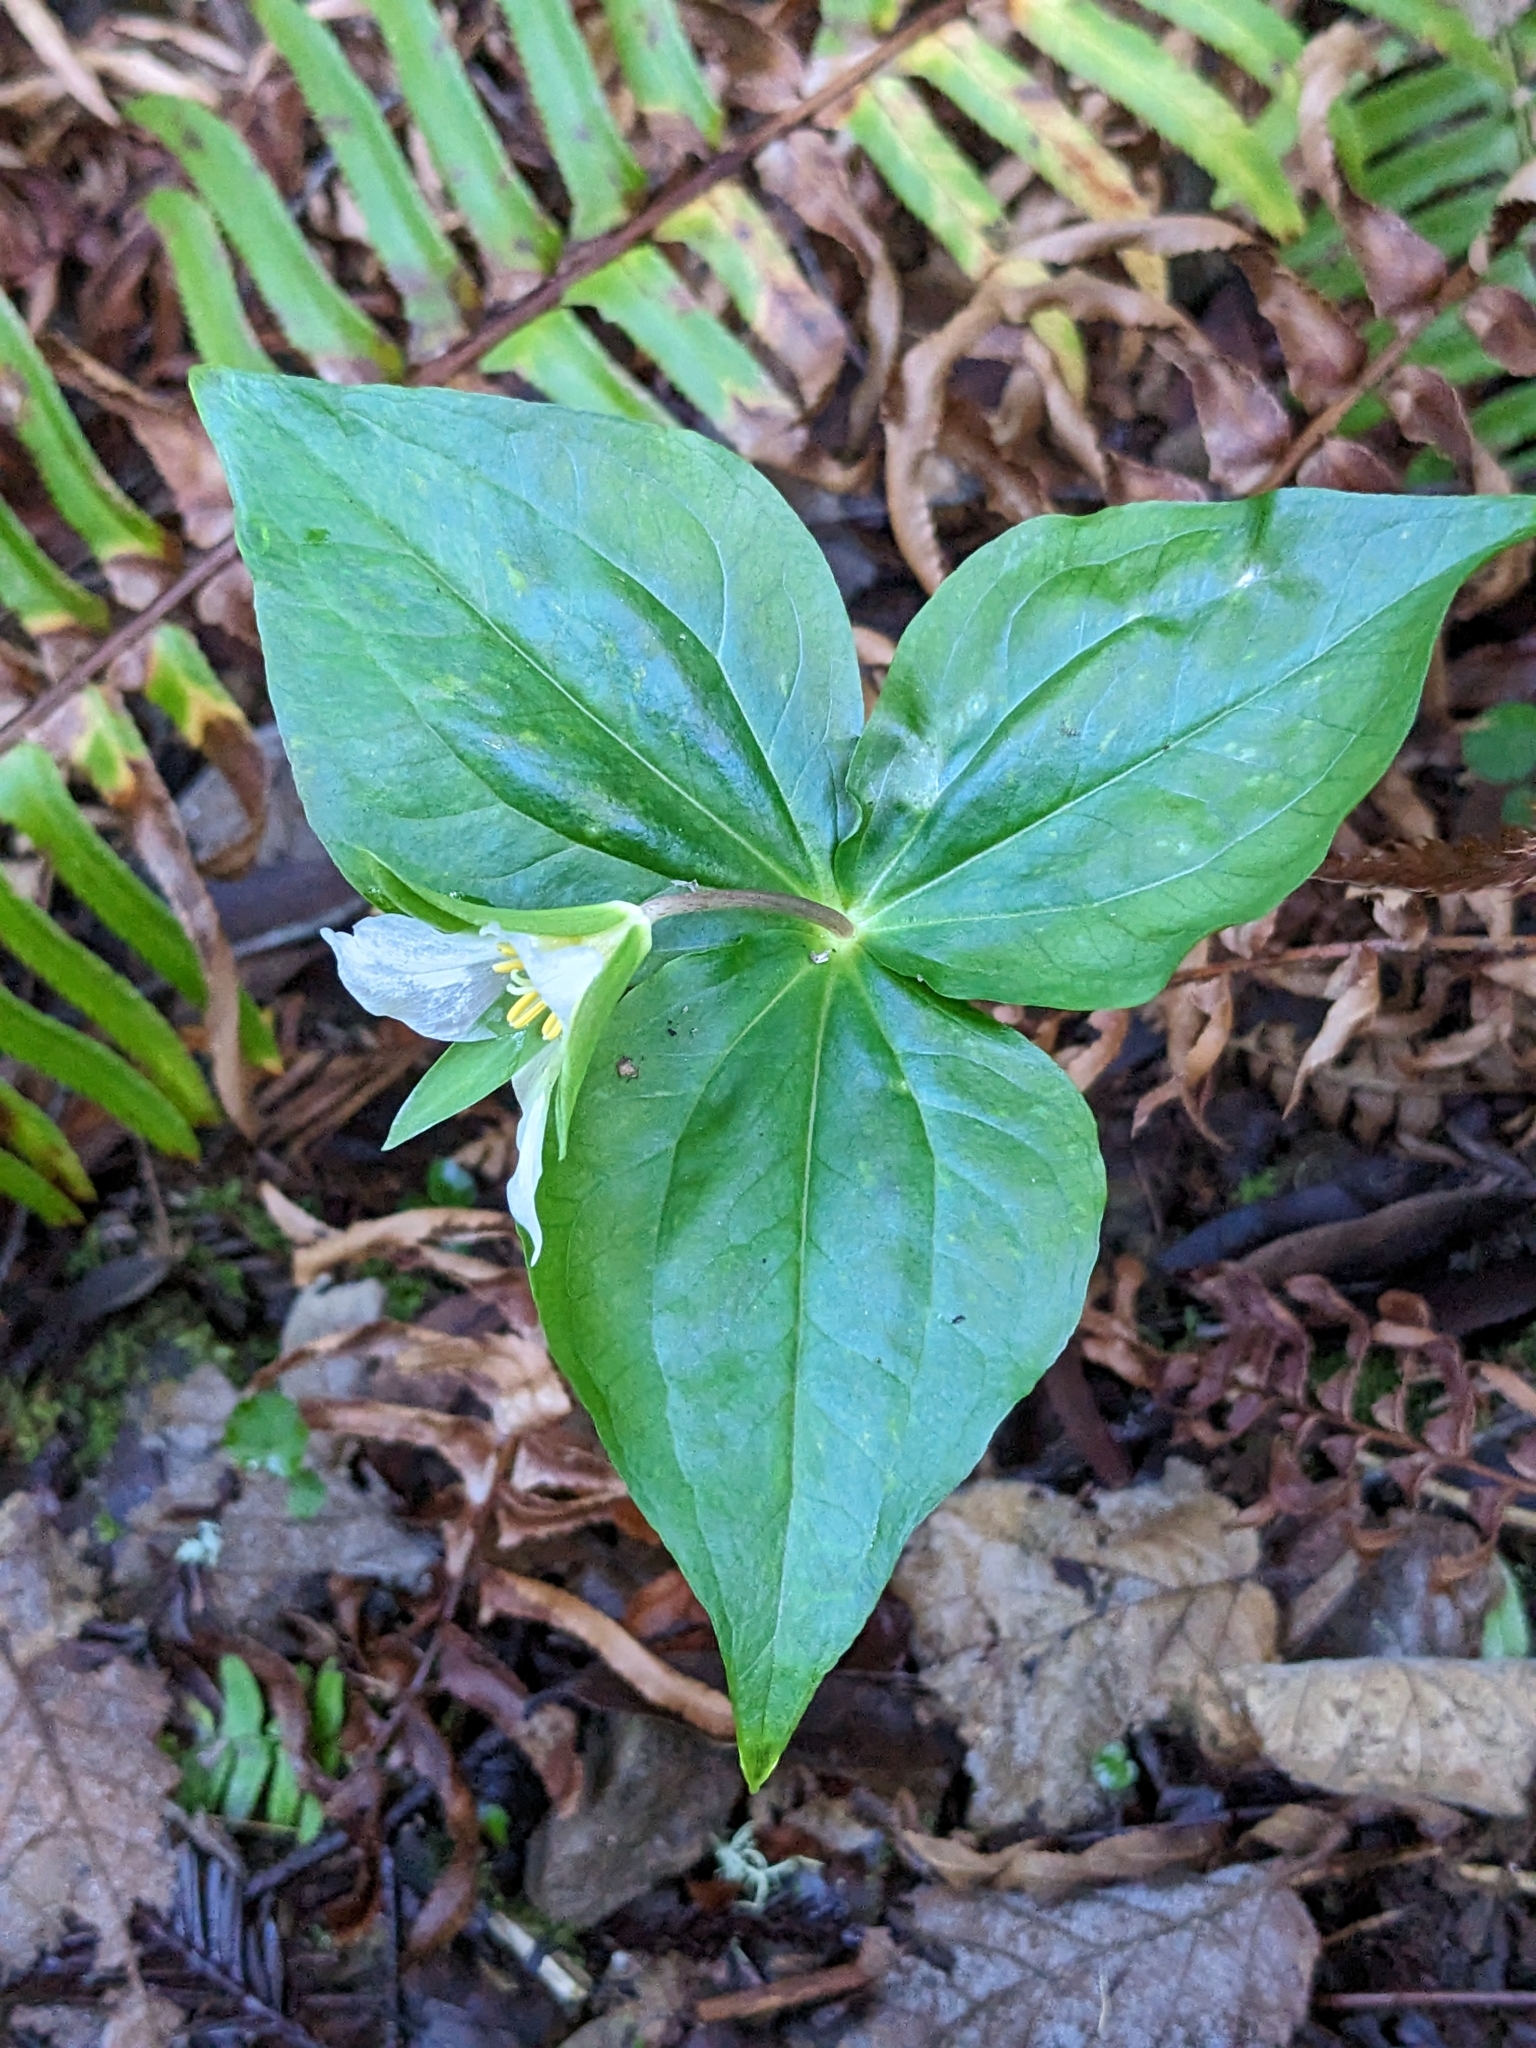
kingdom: Plantae
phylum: Tracheophyta
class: Liliopsida
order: Liliales
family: Melanthiaceae
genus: Trillium
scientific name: Trillium ovatum
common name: Pacific trillium
